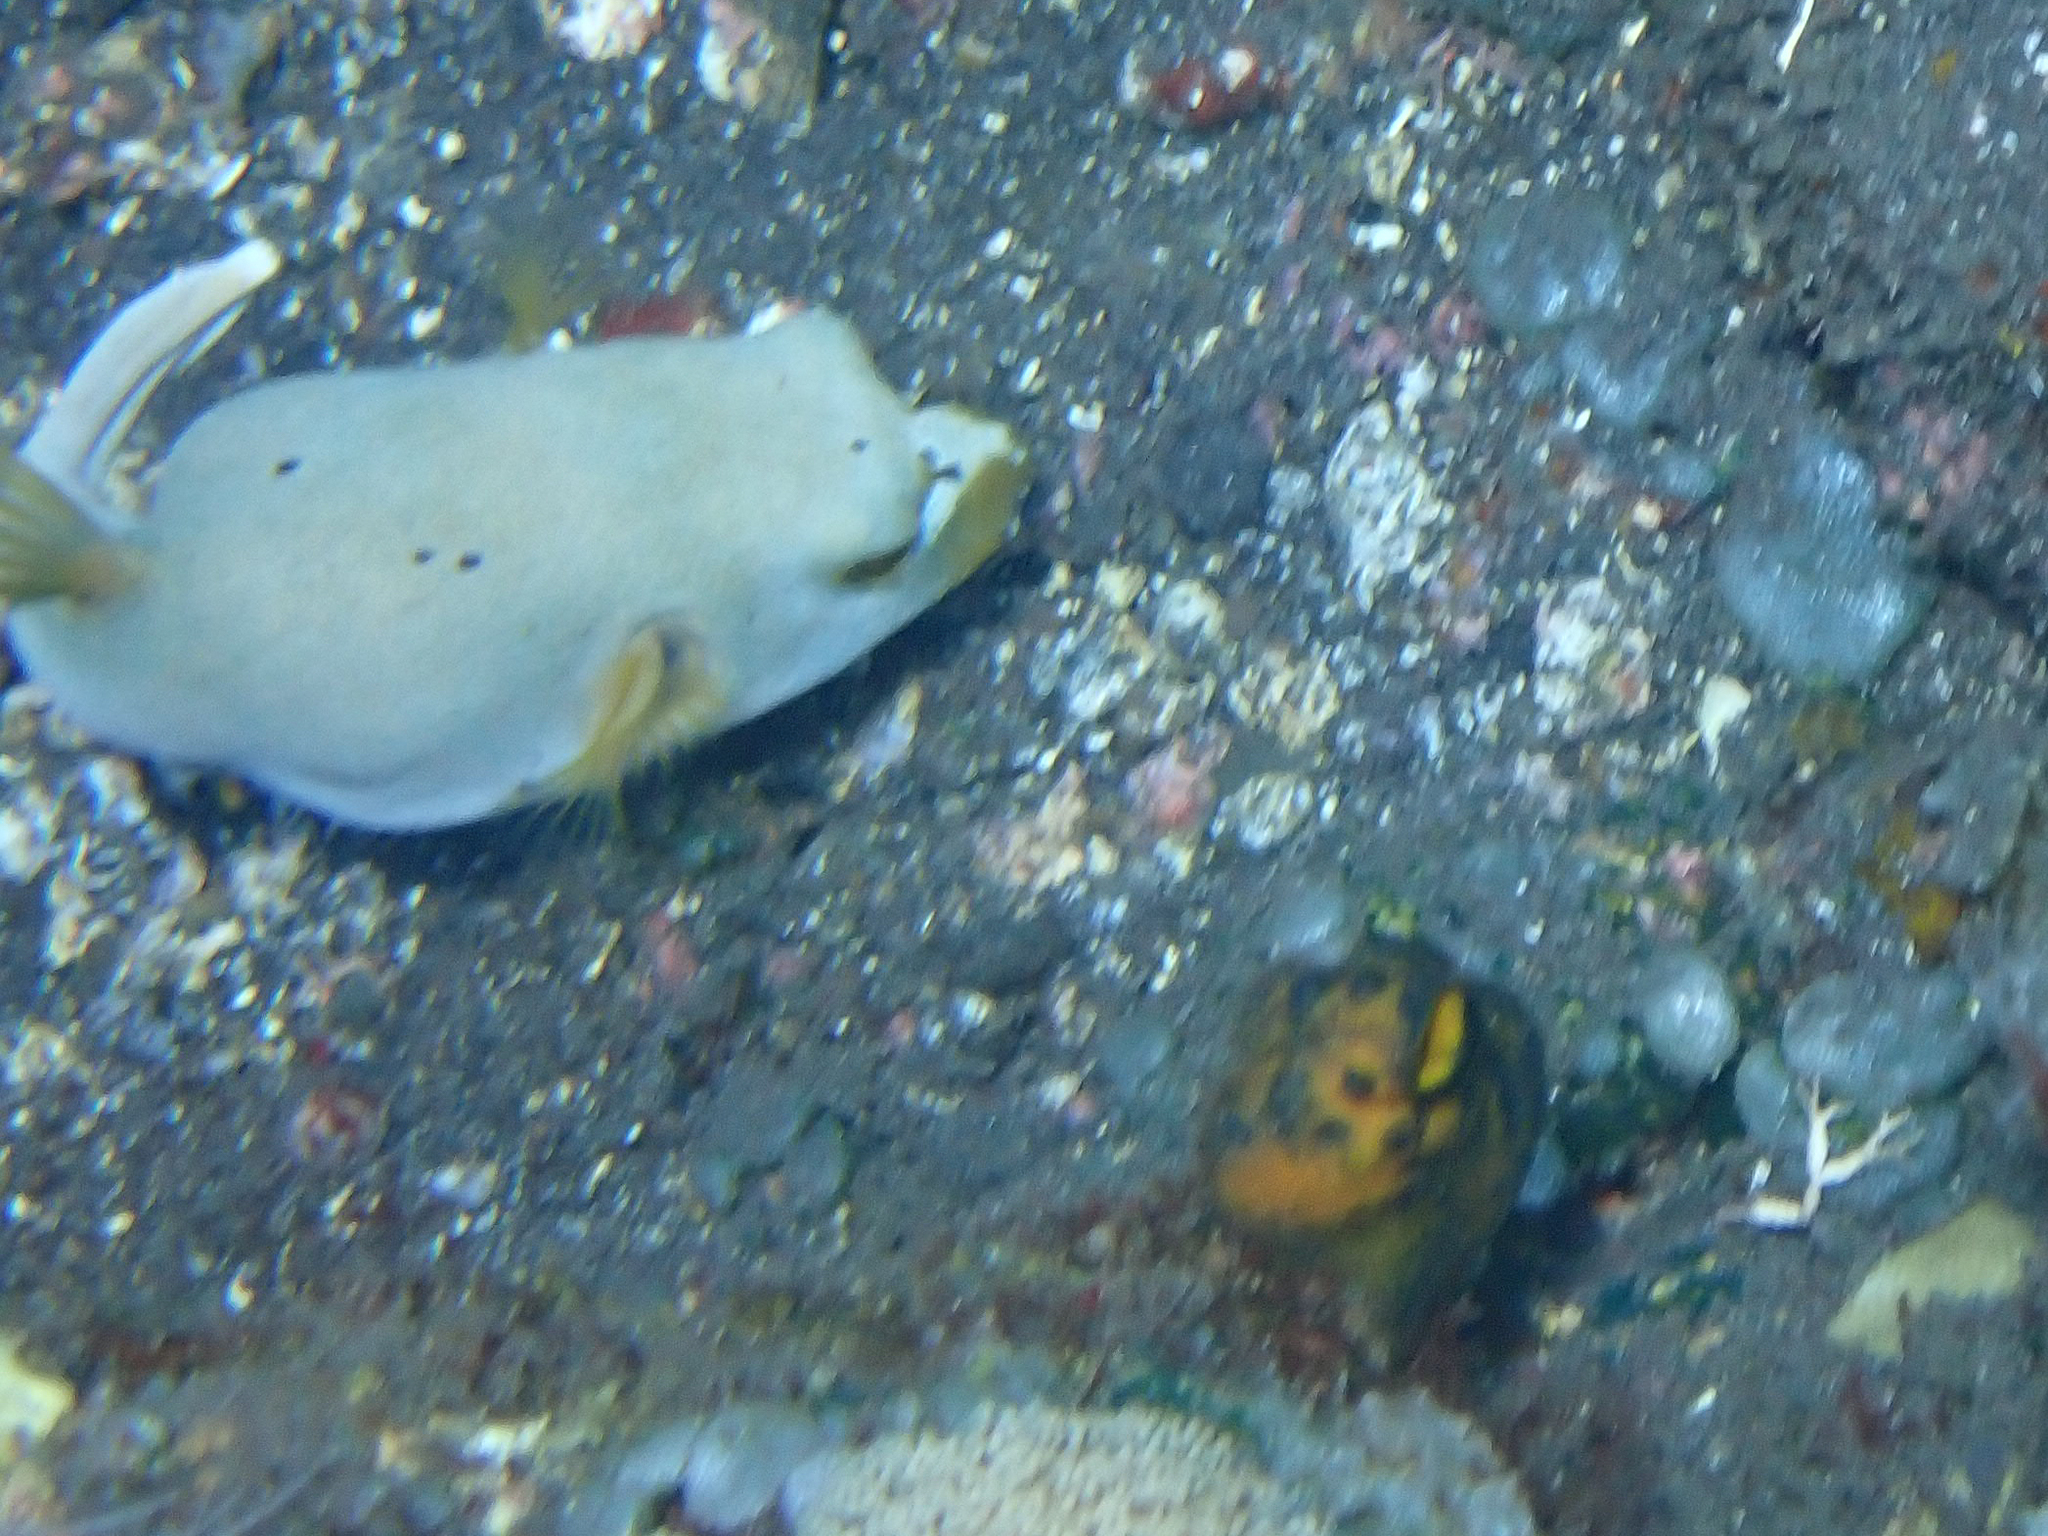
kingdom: Animalia
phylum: Chordata
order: Tetraodontiformes
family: Tetraodontidae
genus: Arothron
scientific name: Arothron nigropunctatus
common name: Black spotted blow fish
